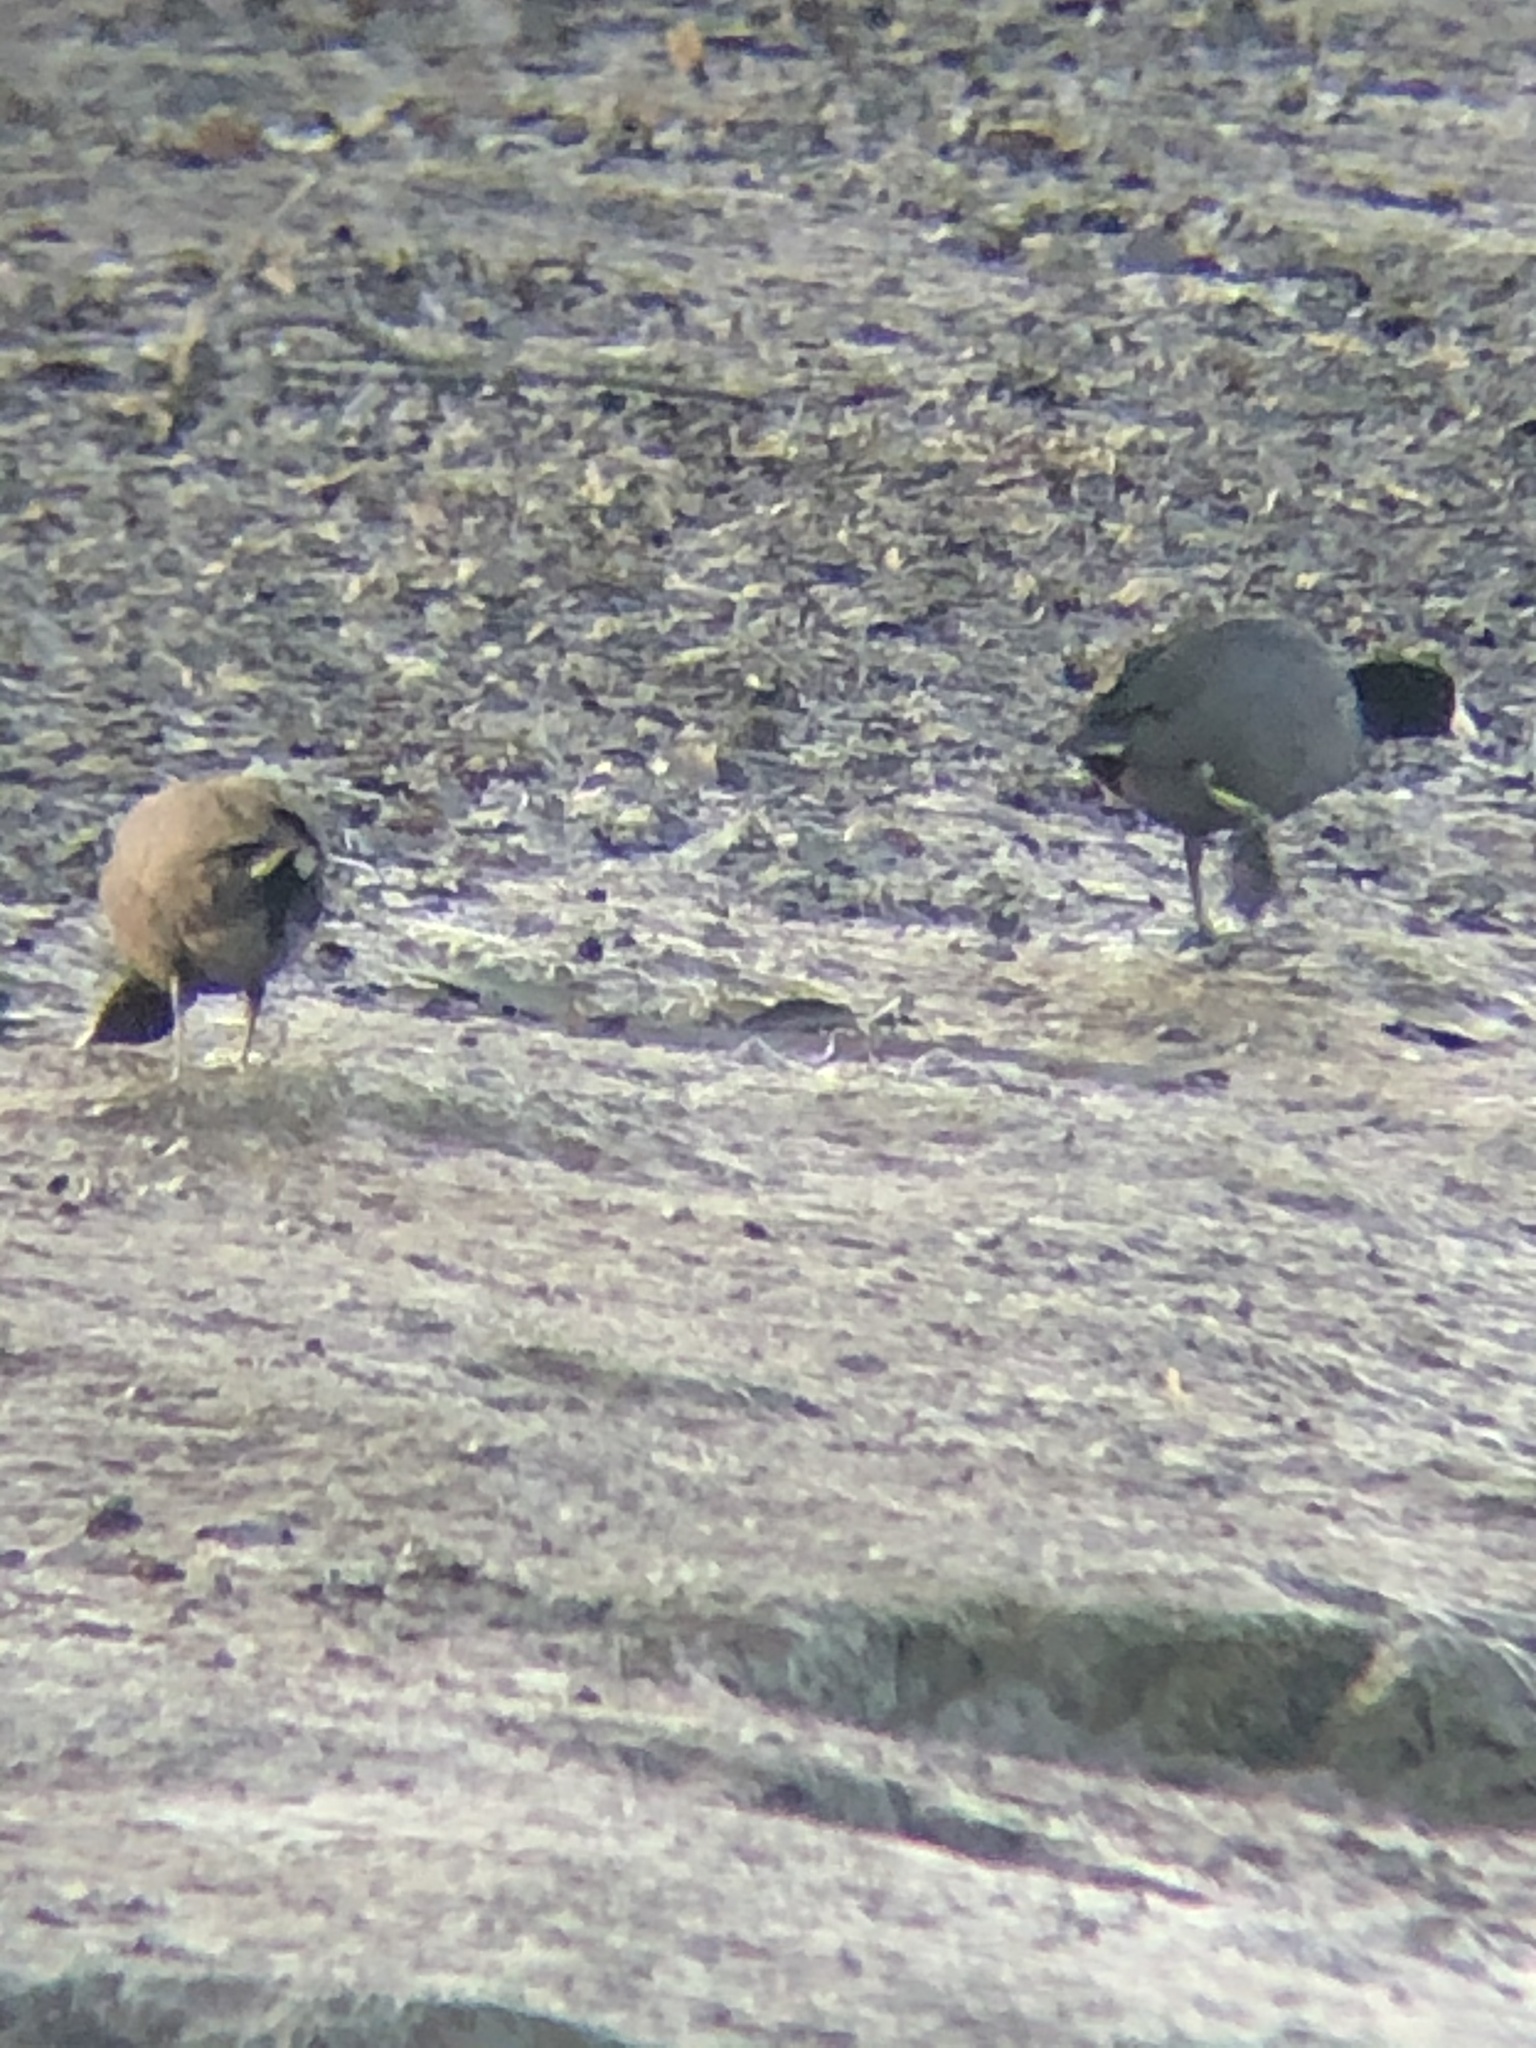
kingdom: Animalia
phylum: Chordata
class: Aves
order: Gruiformes
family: Rallidae
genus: Fulica
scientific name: Fulica americana
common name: American coot
